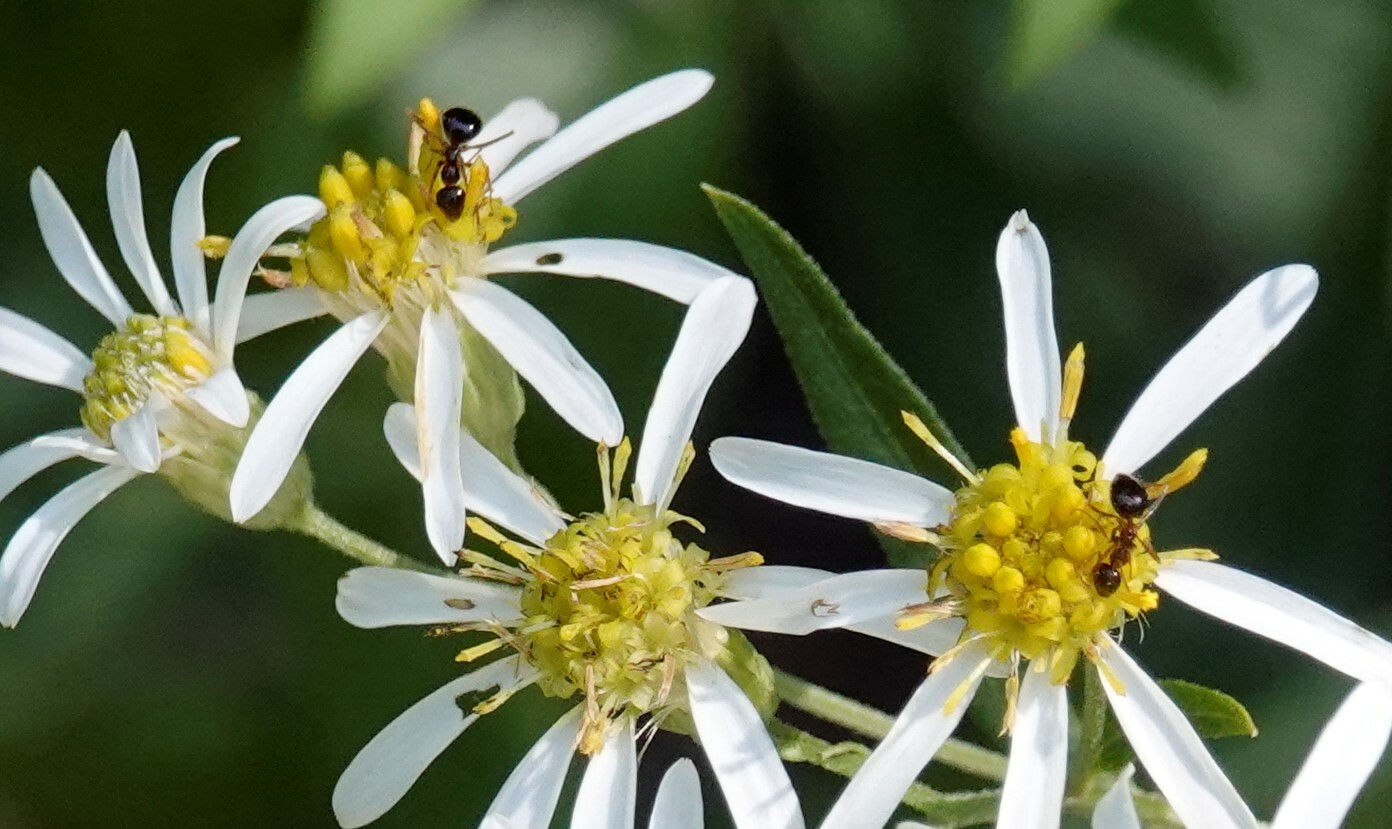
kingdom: Animalia
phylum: Arthropoda
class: Insecta
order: Hymenoptera
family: Formicidae
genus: Prenolepis
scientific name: Prenolepis imparis
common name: Small honey ant
